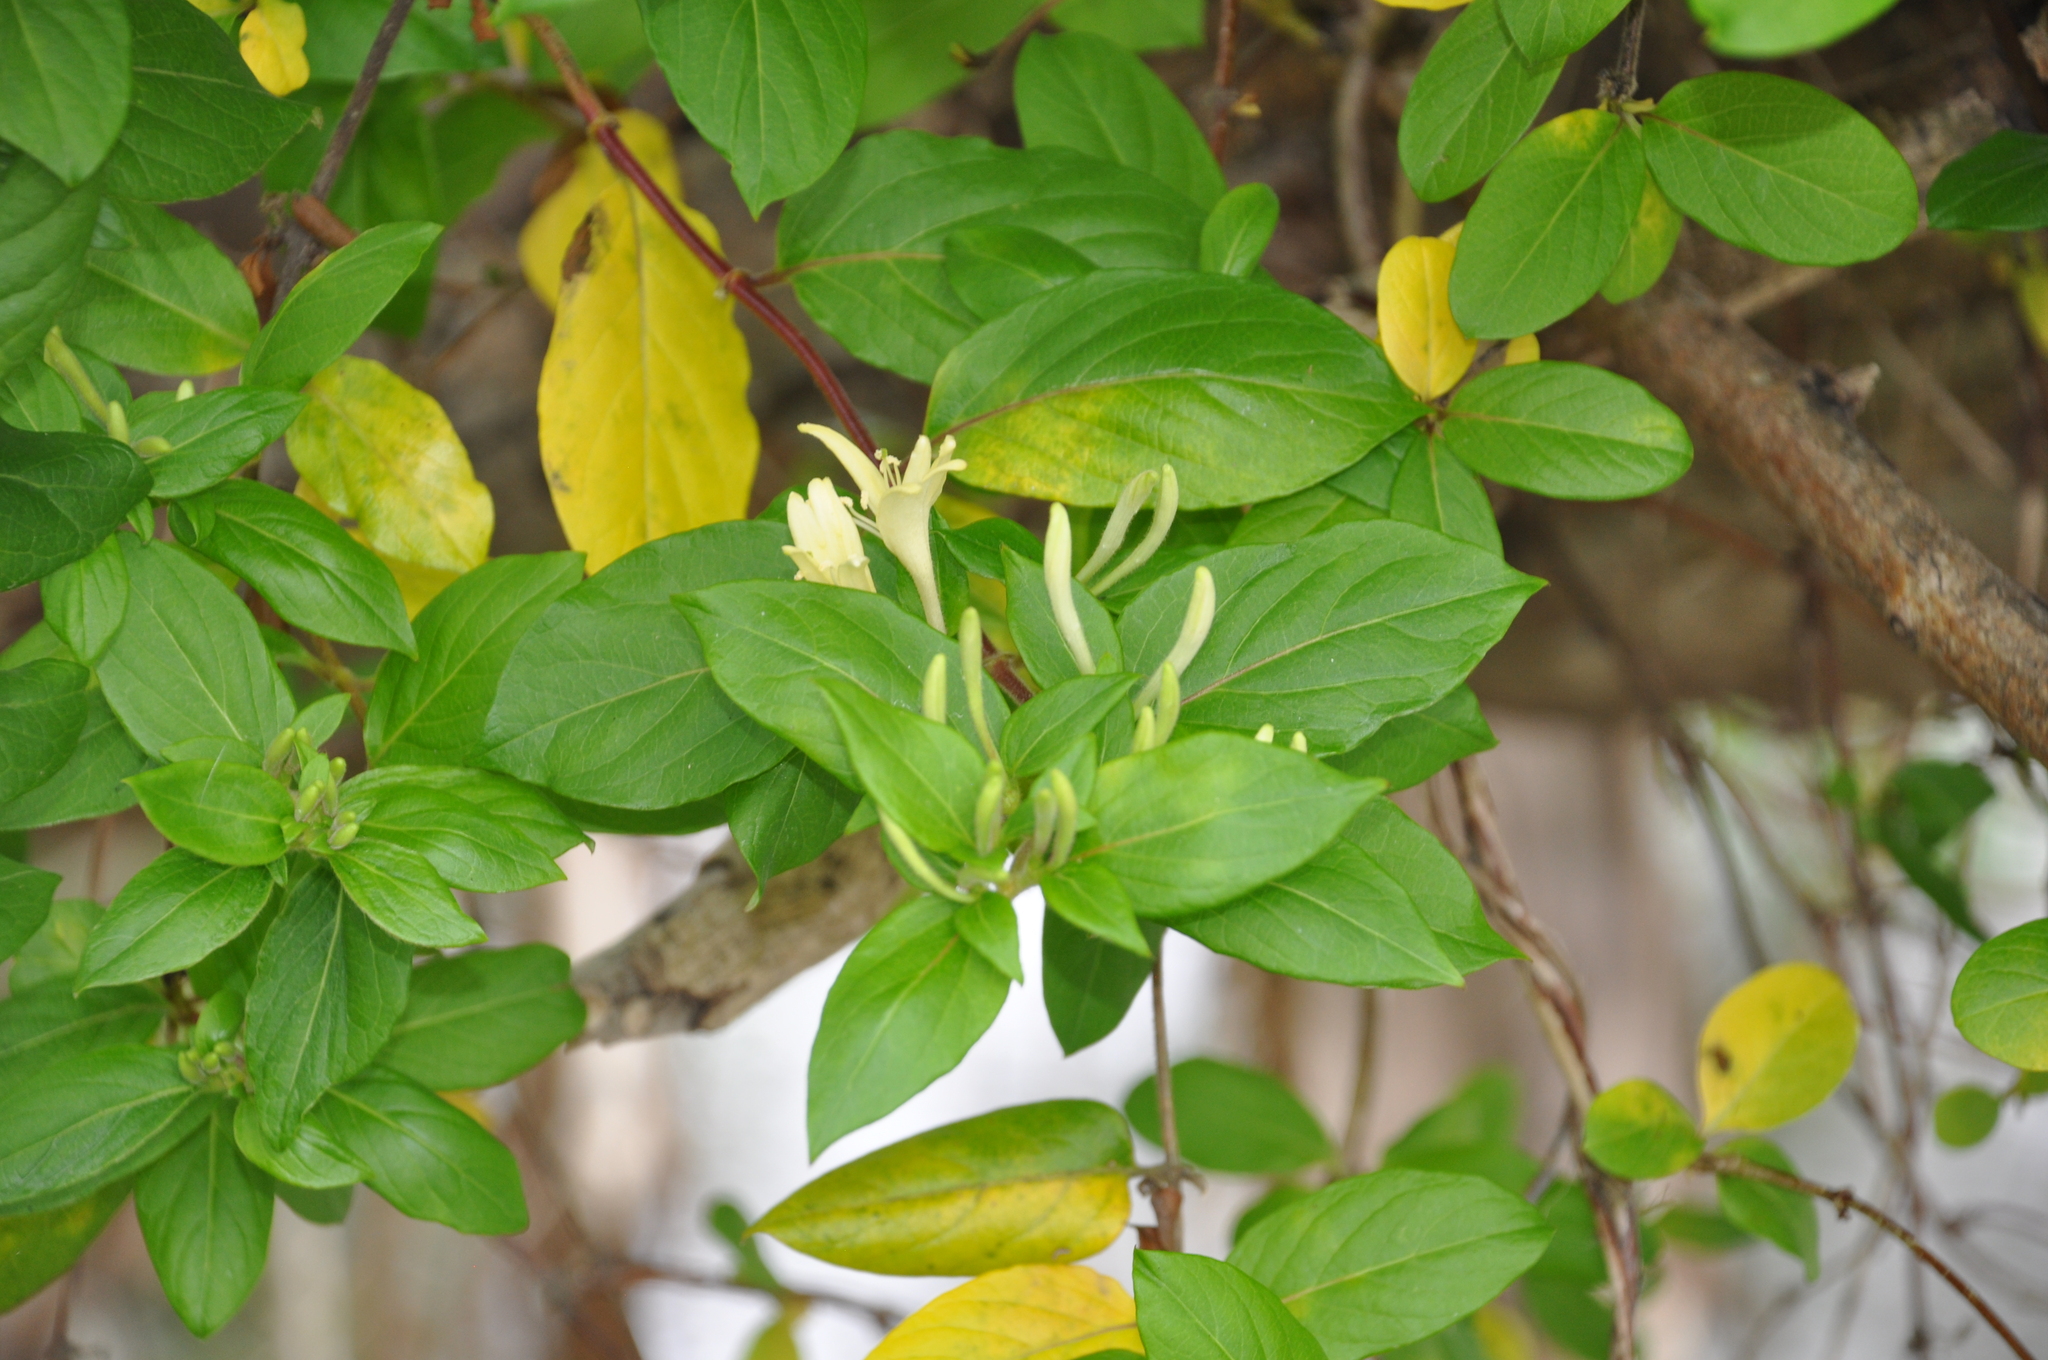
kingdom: Plantae
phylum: Tracheophyta
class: Magnoliopsida
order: Dipsacales
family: Caprifoliaceae
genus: Lonicera
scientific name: Lonicera japonica
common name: Japanese honeysuckle
